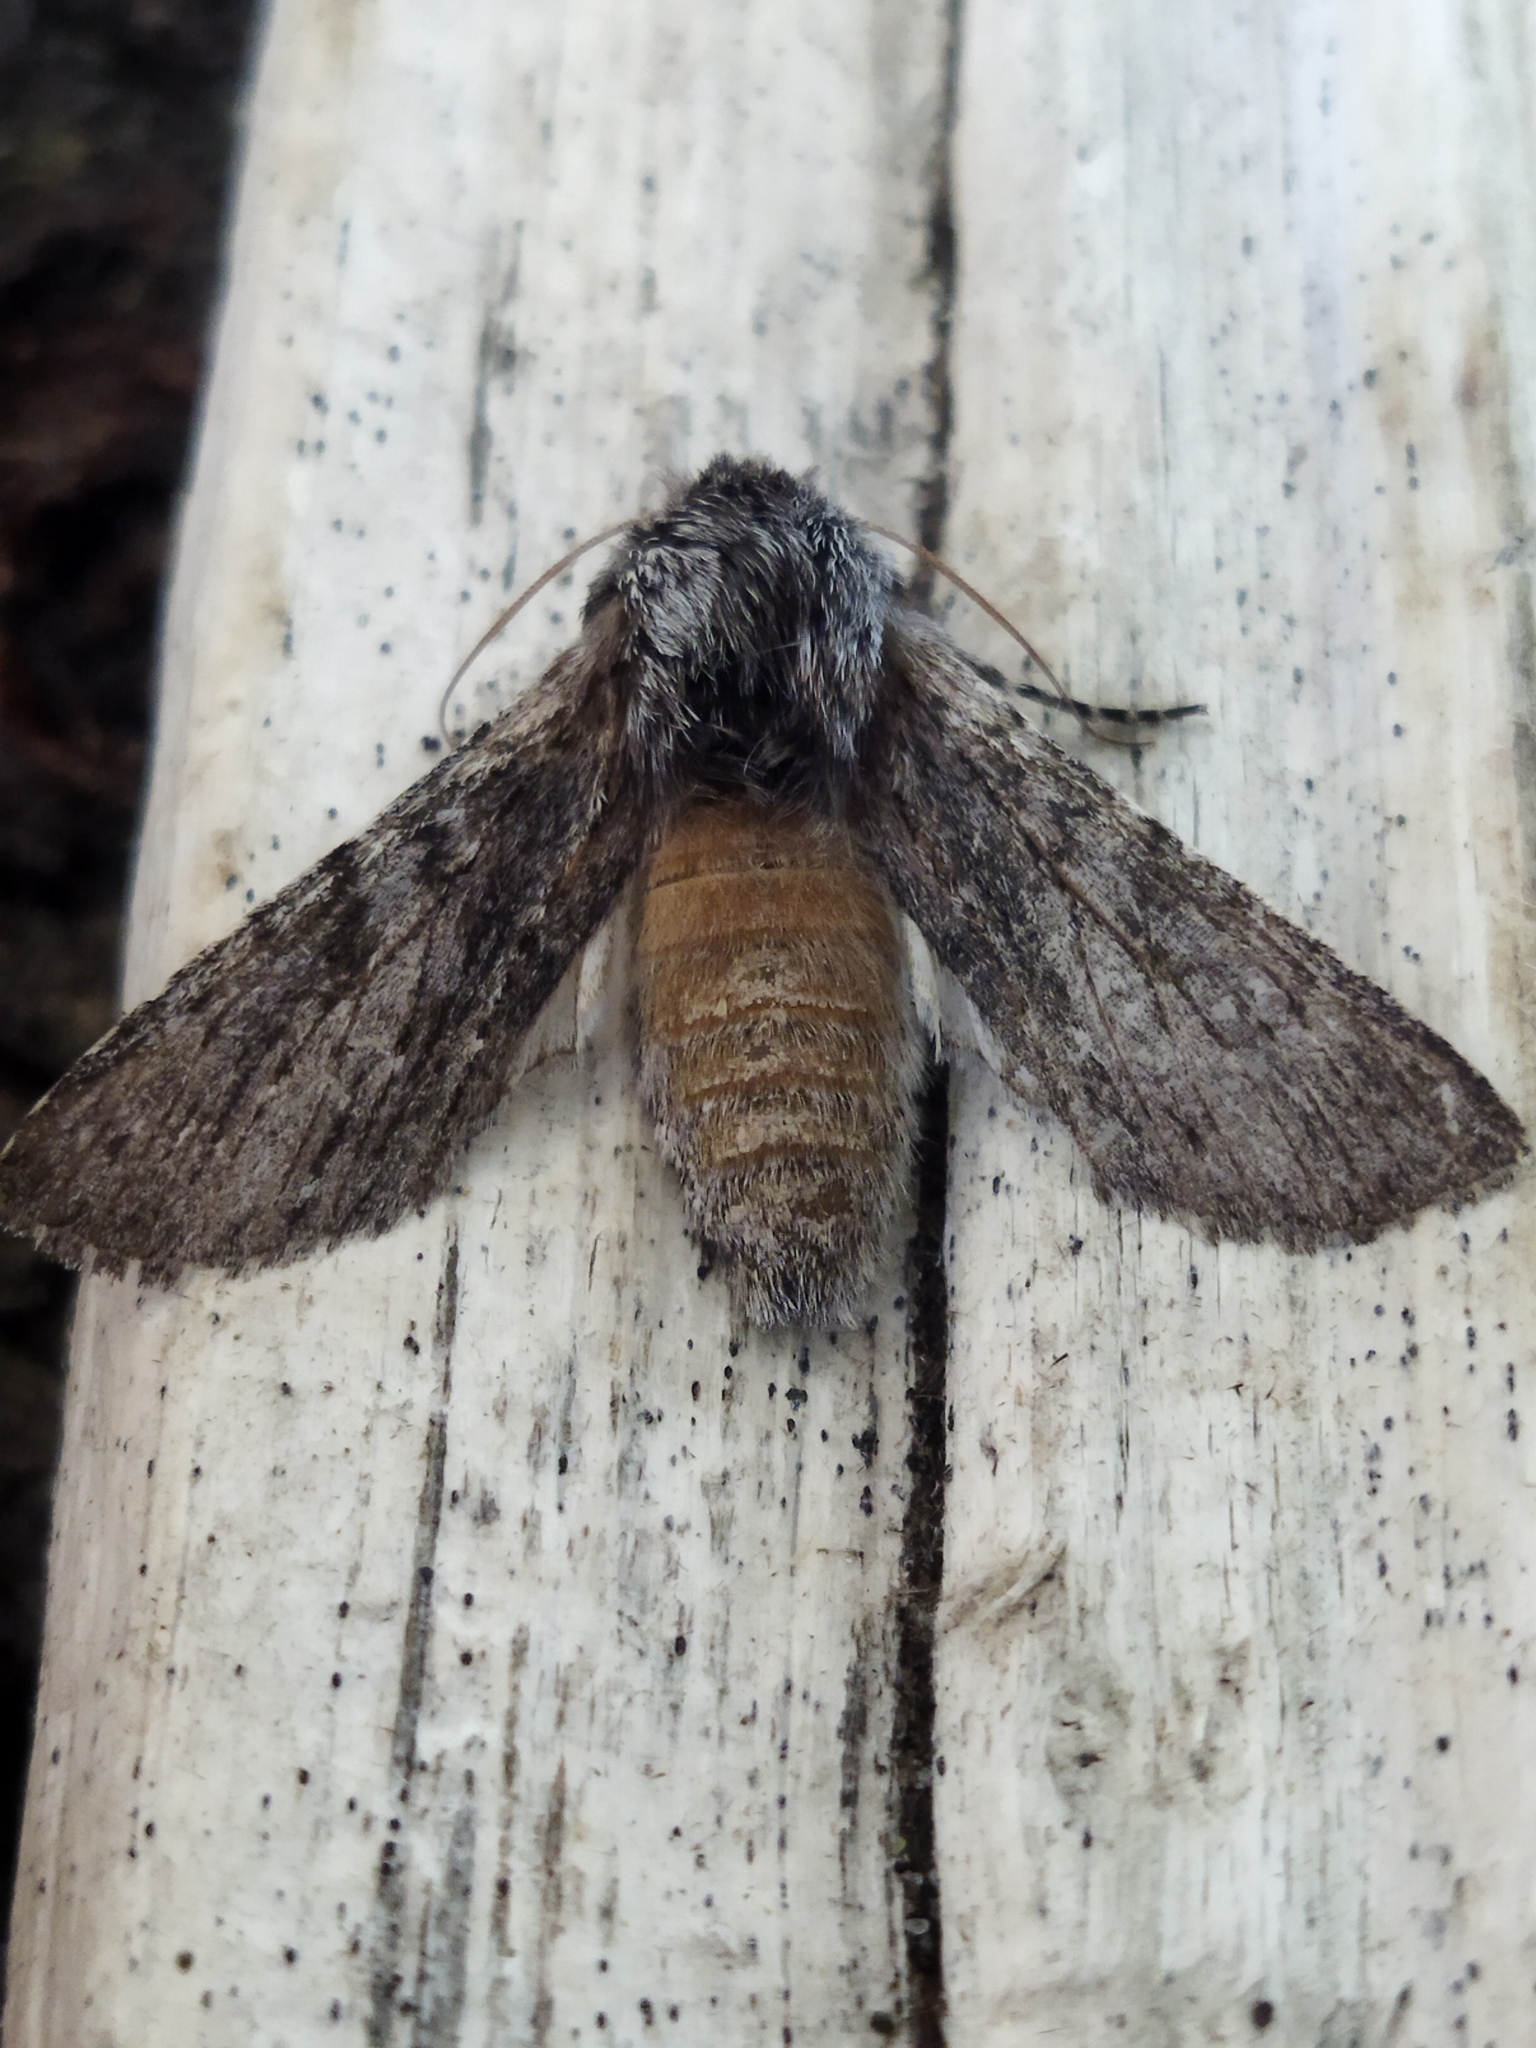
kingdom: Animalia
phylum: Arthropoda
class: Insecta
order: Lepidoptera
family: Notodontidae
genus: Dicranura
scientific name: Dicranura ulmi
